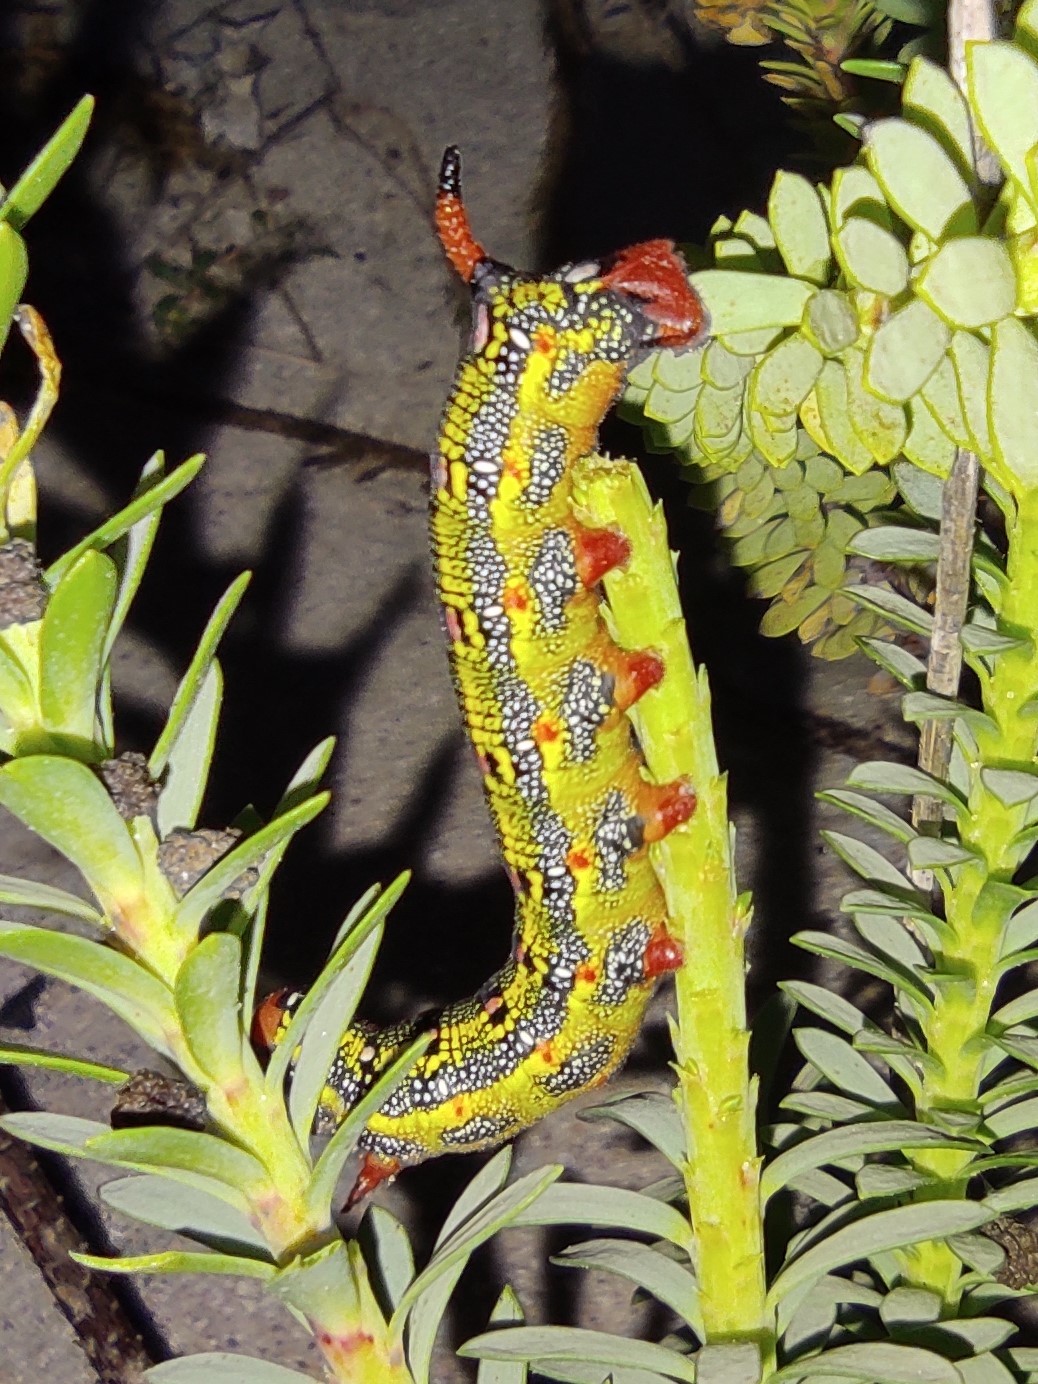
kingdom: Animalia
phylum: Arthropoda
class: Insecta
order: Lepidoptera
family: Sphingidae
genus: Hyles
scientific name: Hyles euphorbiae
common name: Spurge hawk-moth
